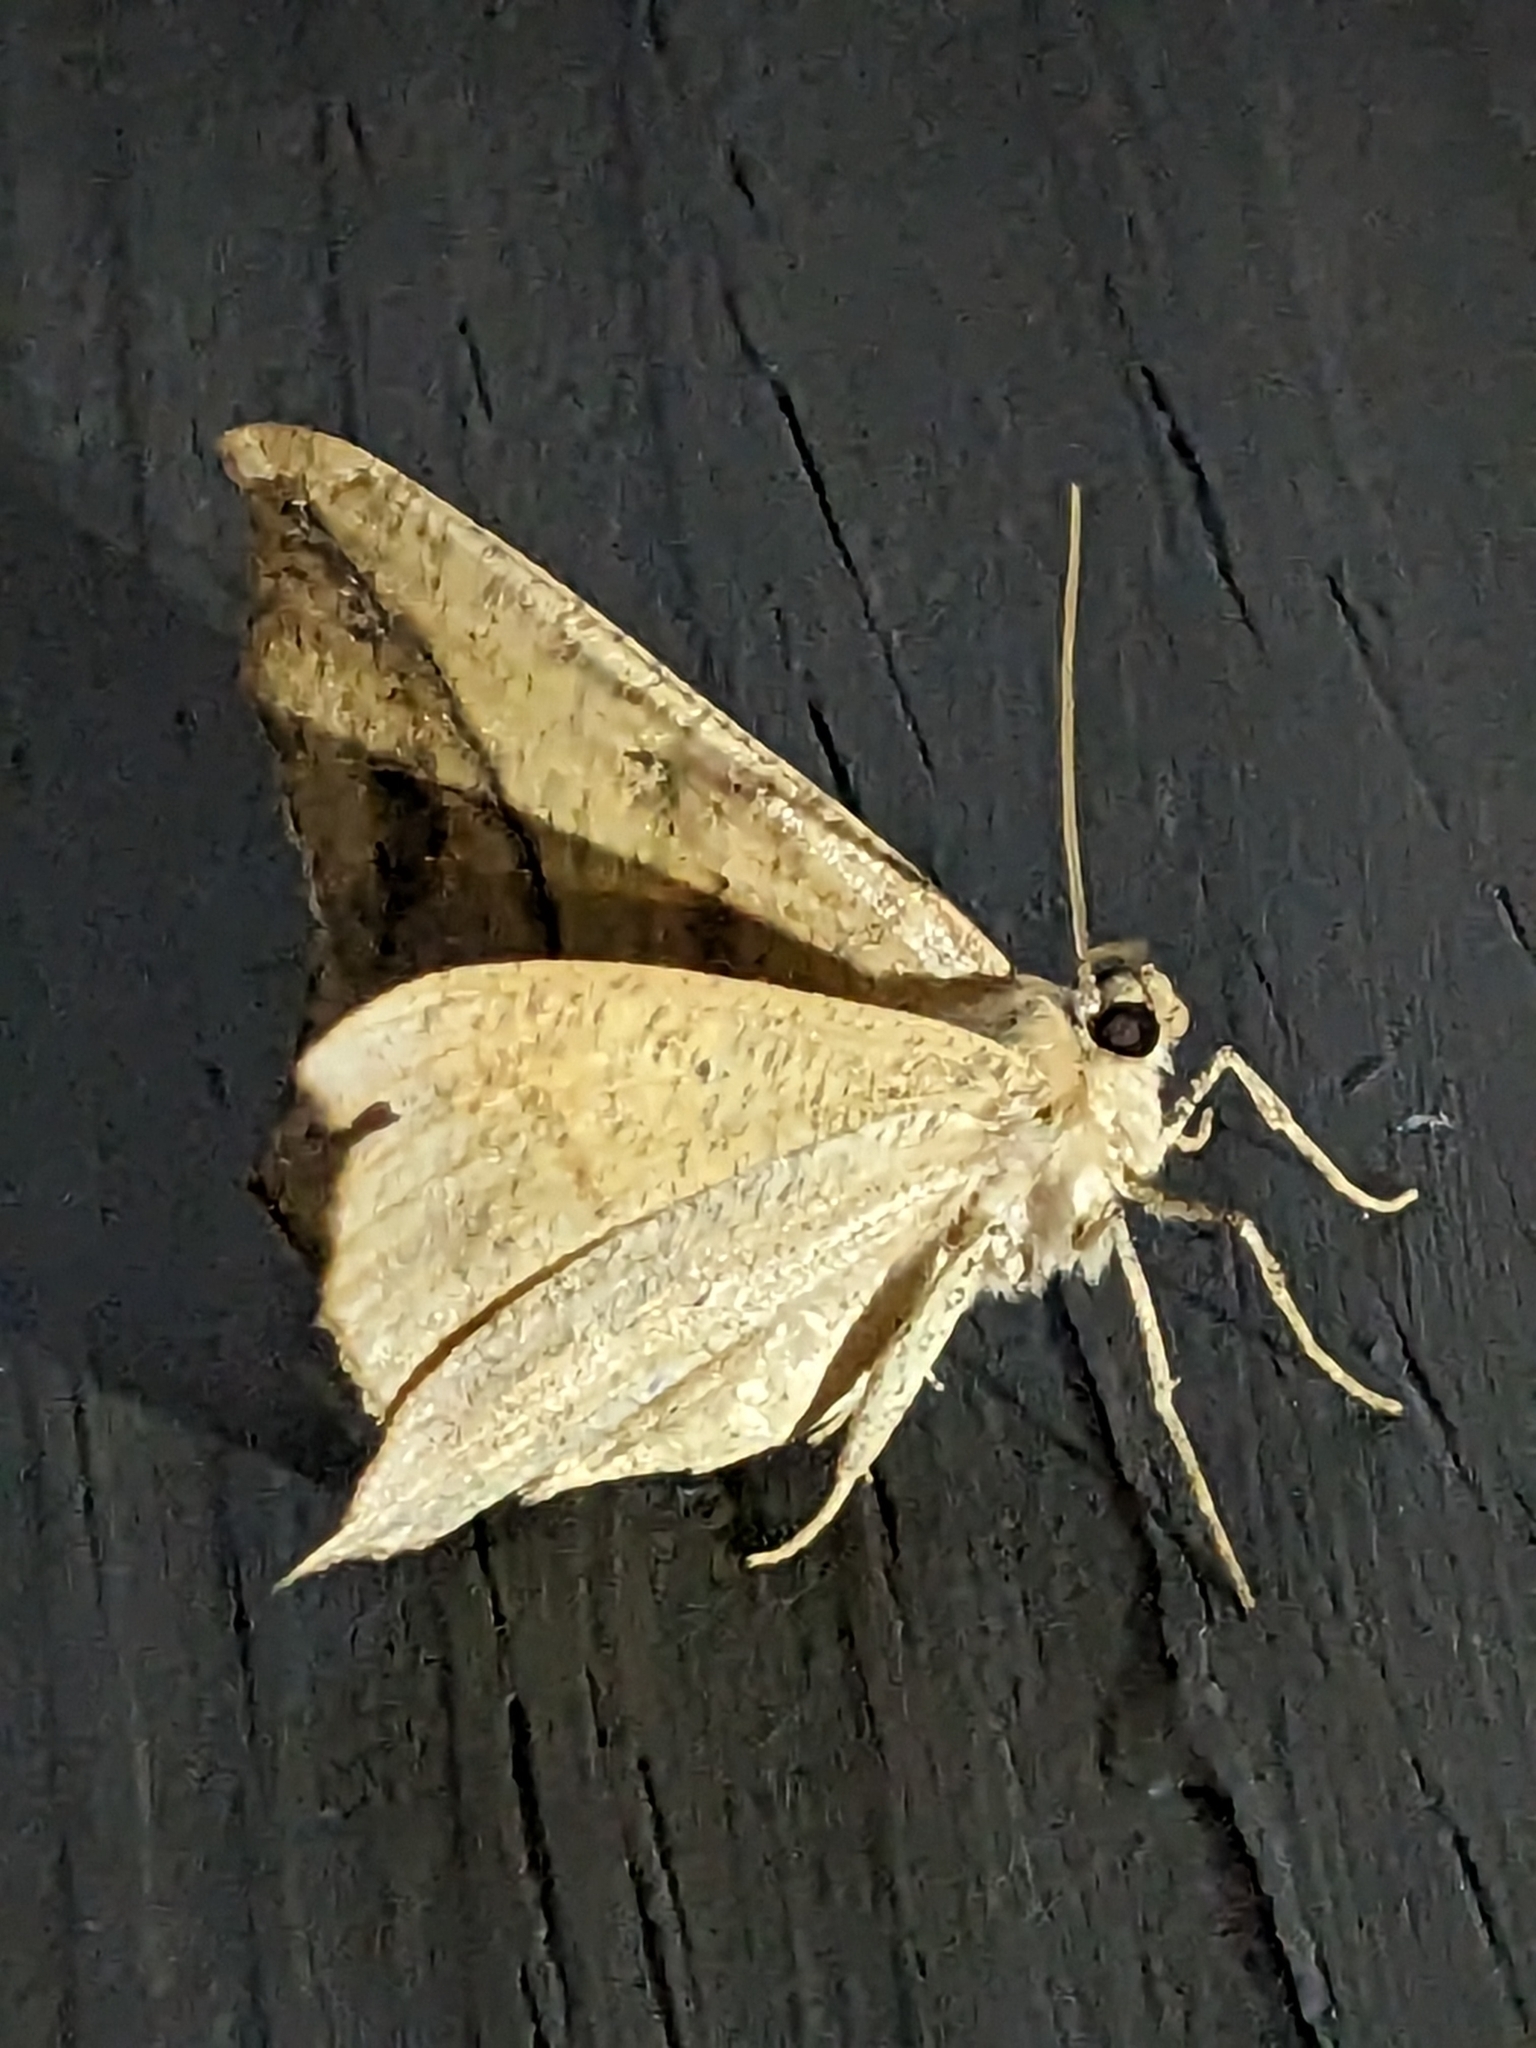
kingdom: Animalia
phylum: Arthropoda
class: Insecta
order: Lepidoptera
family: Geometridae
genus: Prochoerodes
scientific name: Prochoerodes lineola
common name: Large maple spanworm
